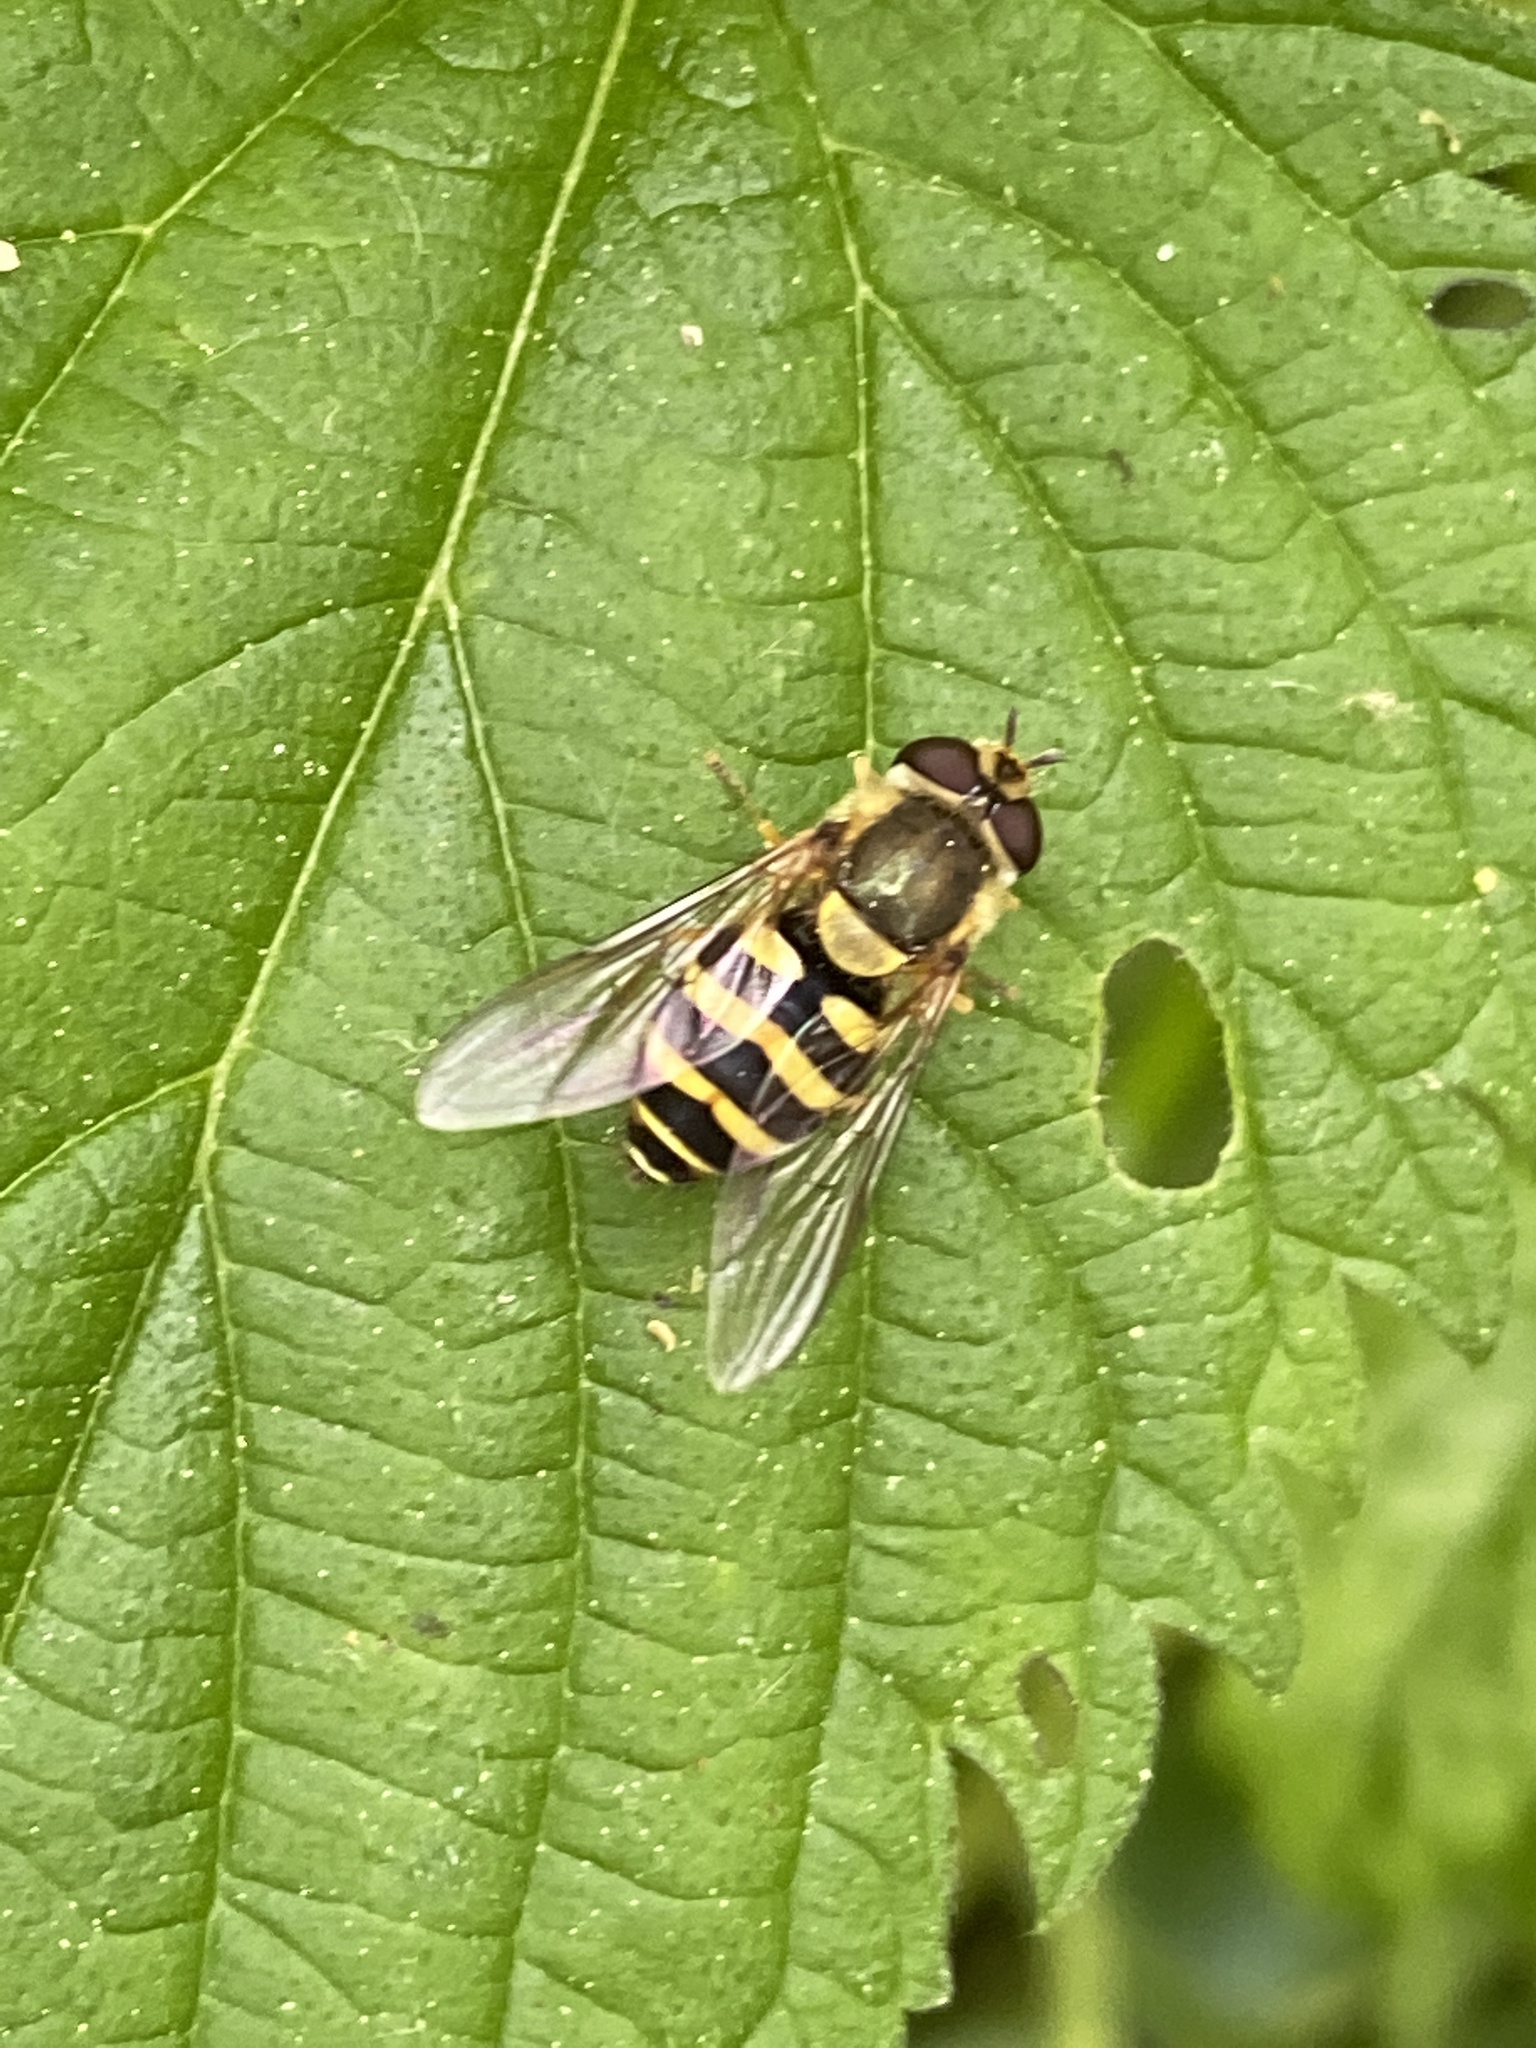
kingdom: Animalia
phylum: Arthropoda
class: Insecta
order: Diptera
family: Syrphidae
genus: Syrphus
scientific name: Syrphus
